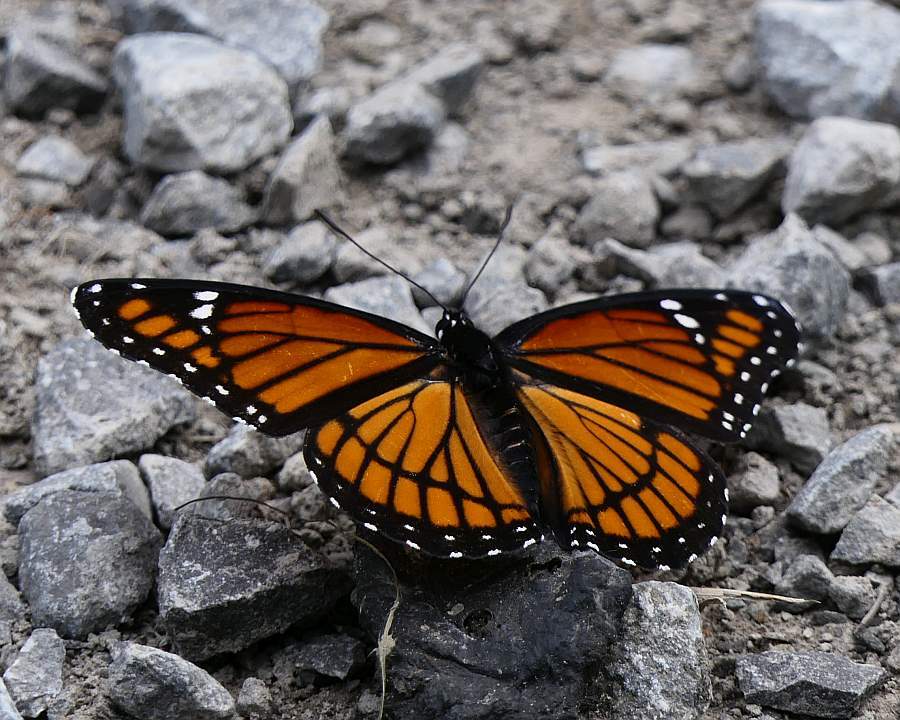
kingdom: Animalia
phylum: Arthropoda
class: Insecta
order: Lepidoptera
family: Nymphalidae
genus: Limenitis
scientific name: Limenitis archippus
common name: Viceroy
